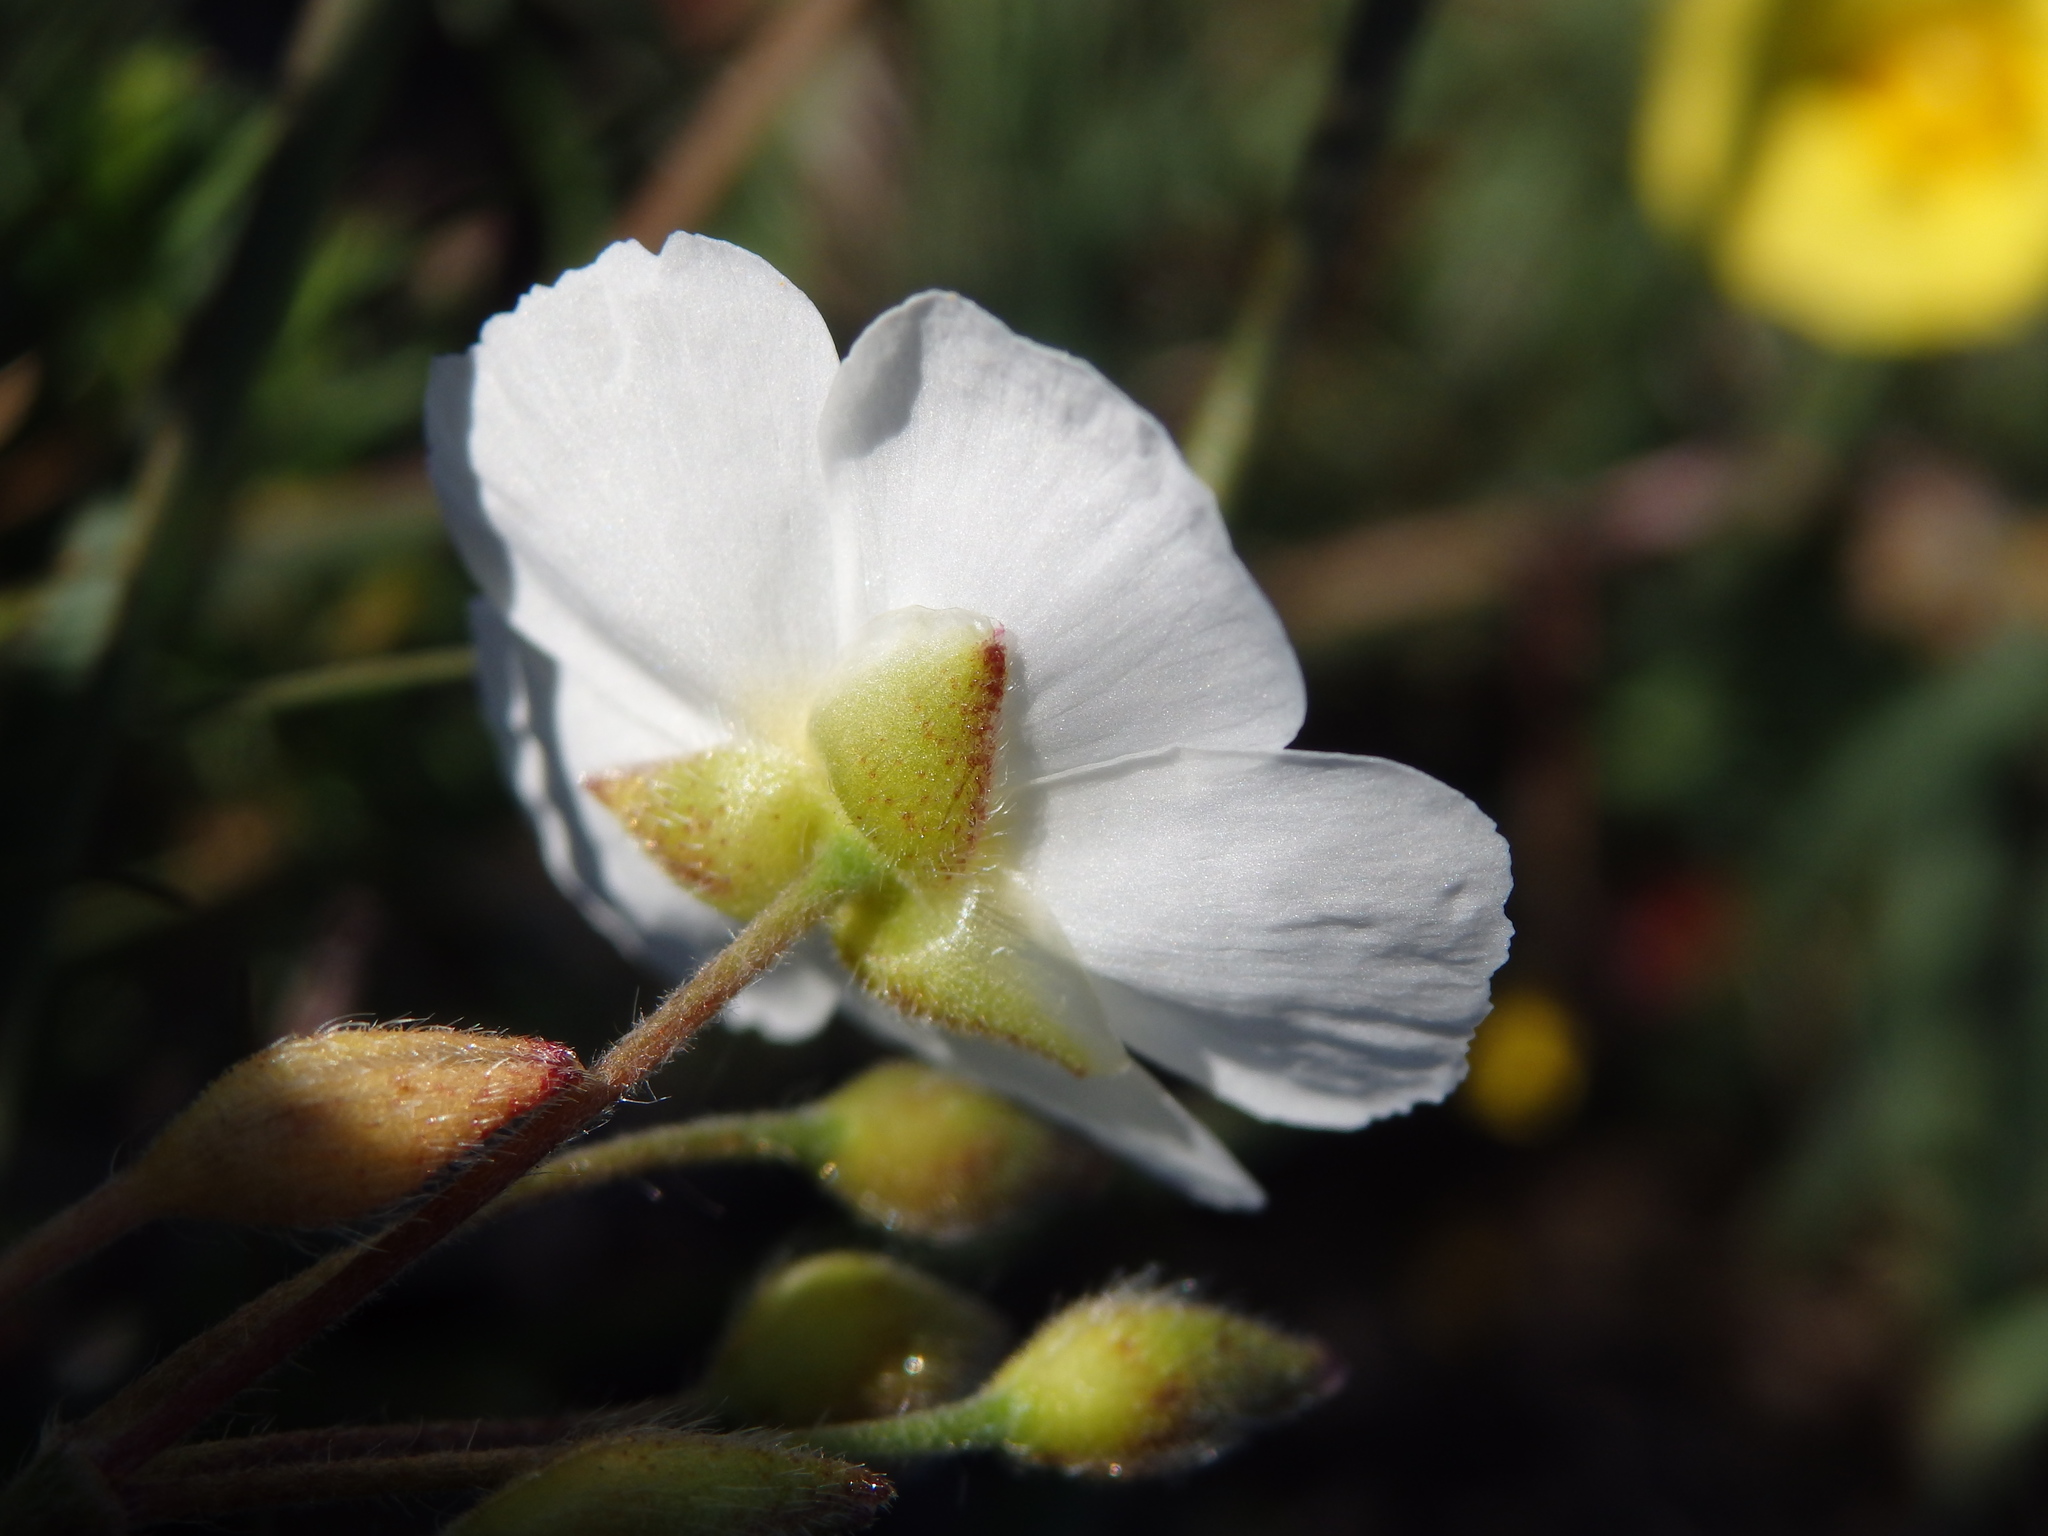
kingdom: Plantae
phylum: Tracheophyta
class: Magnoliopsida
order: Malvales
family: Cistaceae
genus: Halimium
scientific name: Halimium umbellatum
